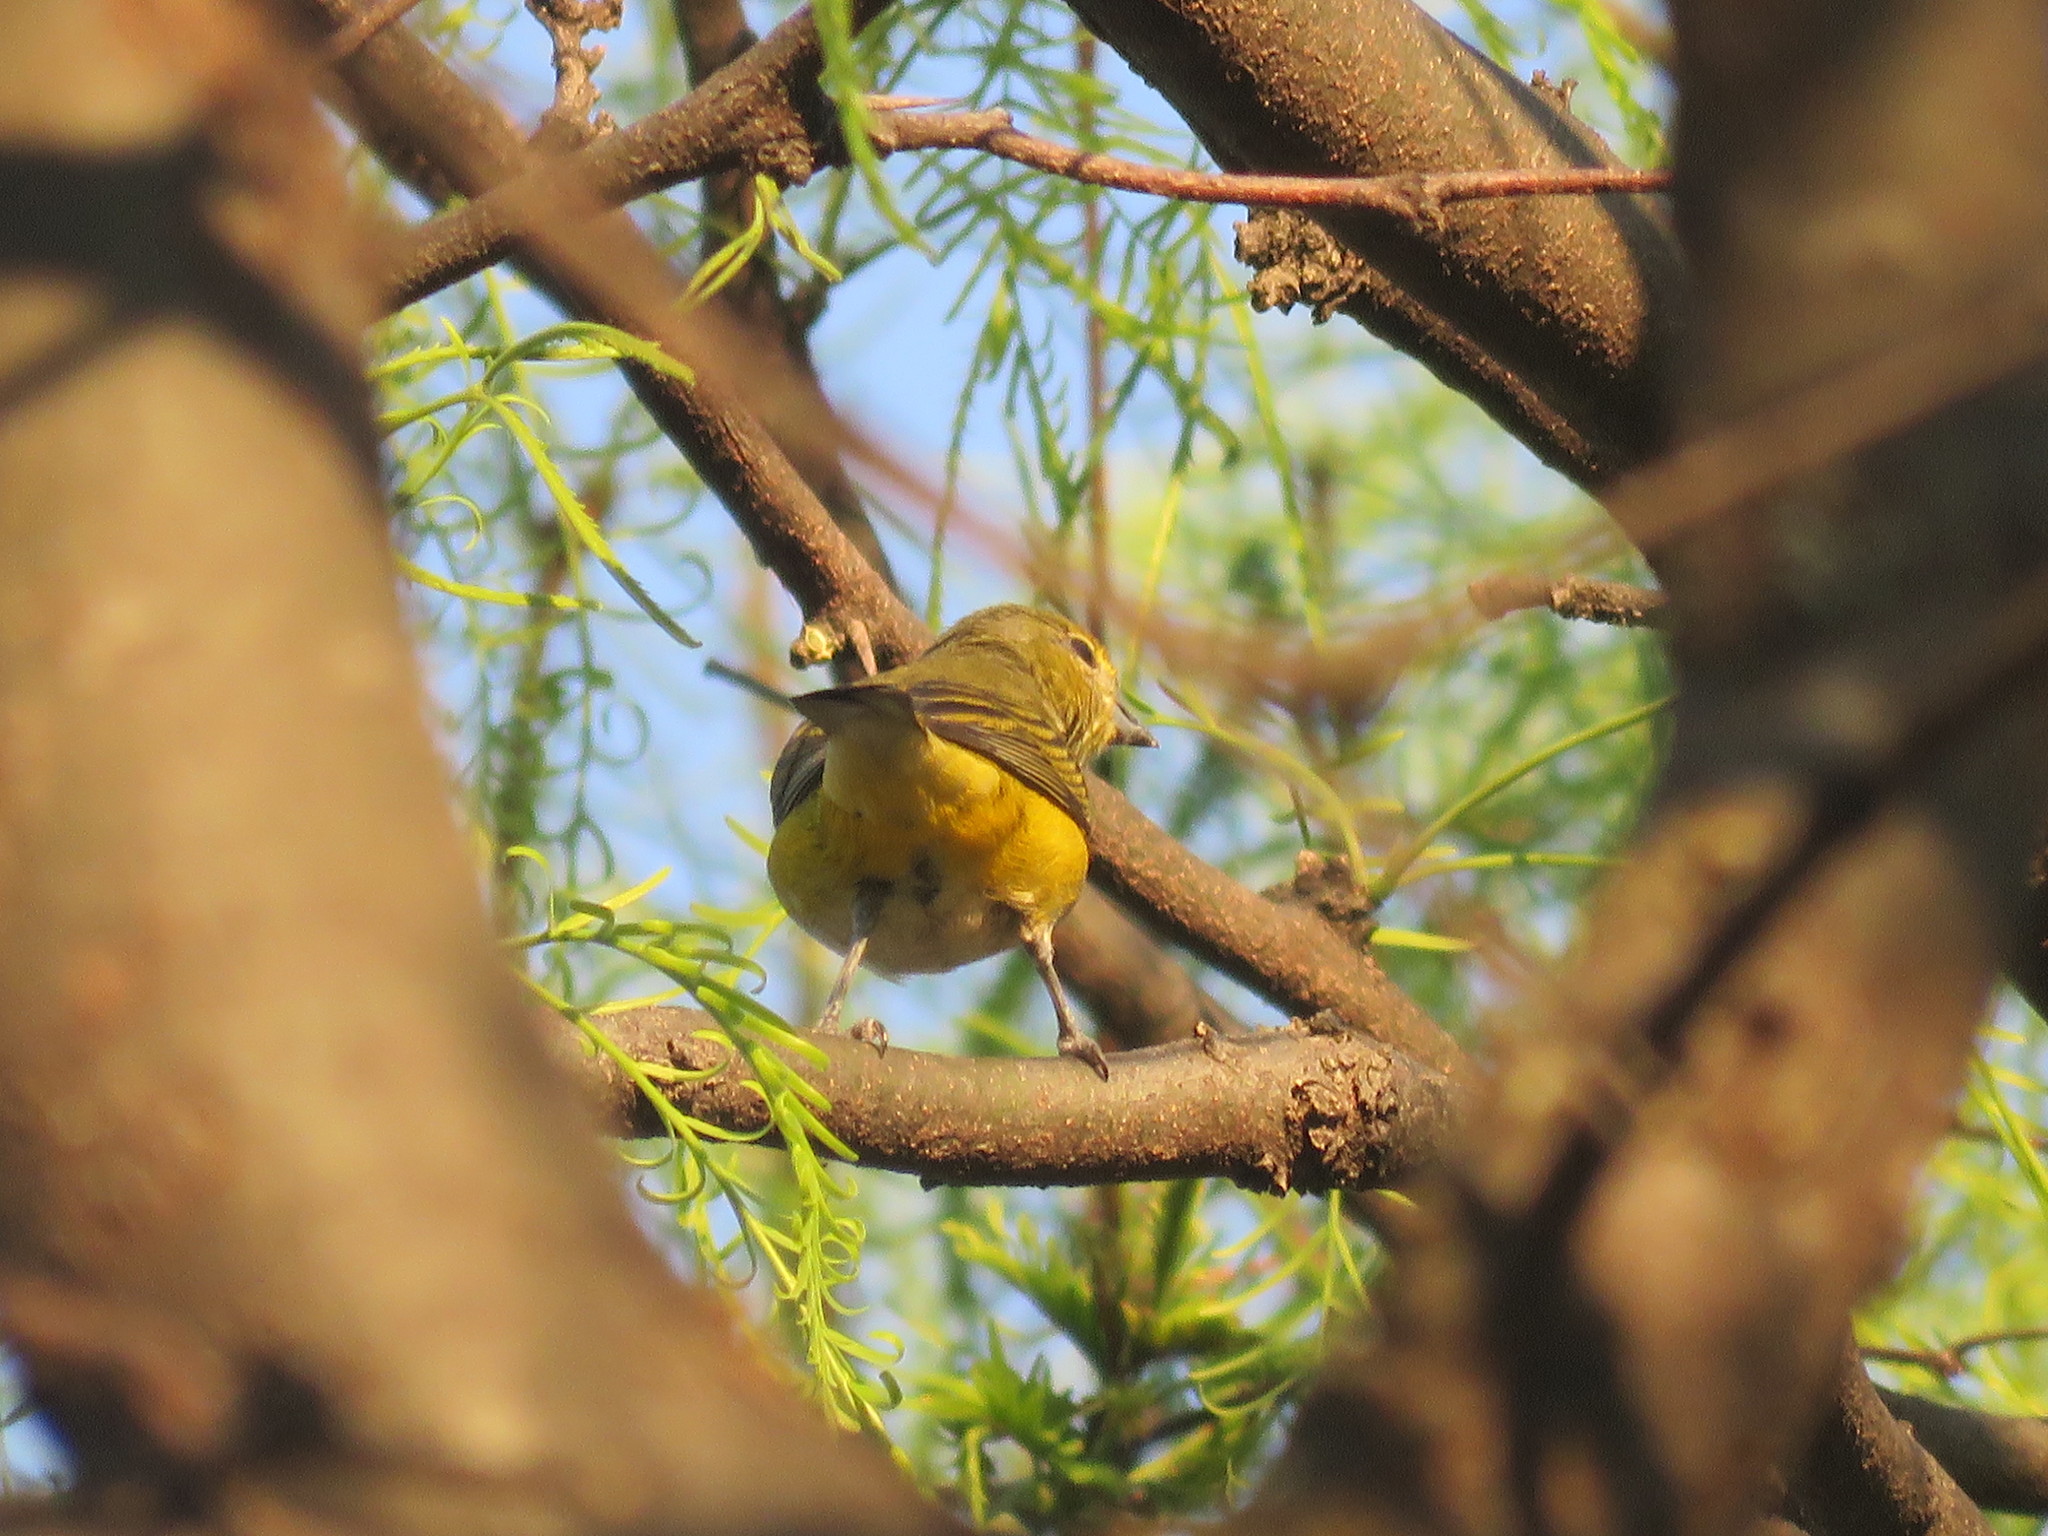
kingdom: Animalia
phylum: Chordata
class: Aves
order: Passeriformes
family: Fringillidae
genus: Euphonia
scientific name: Euphonia chlorotica
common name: Purple-throated euphonia
